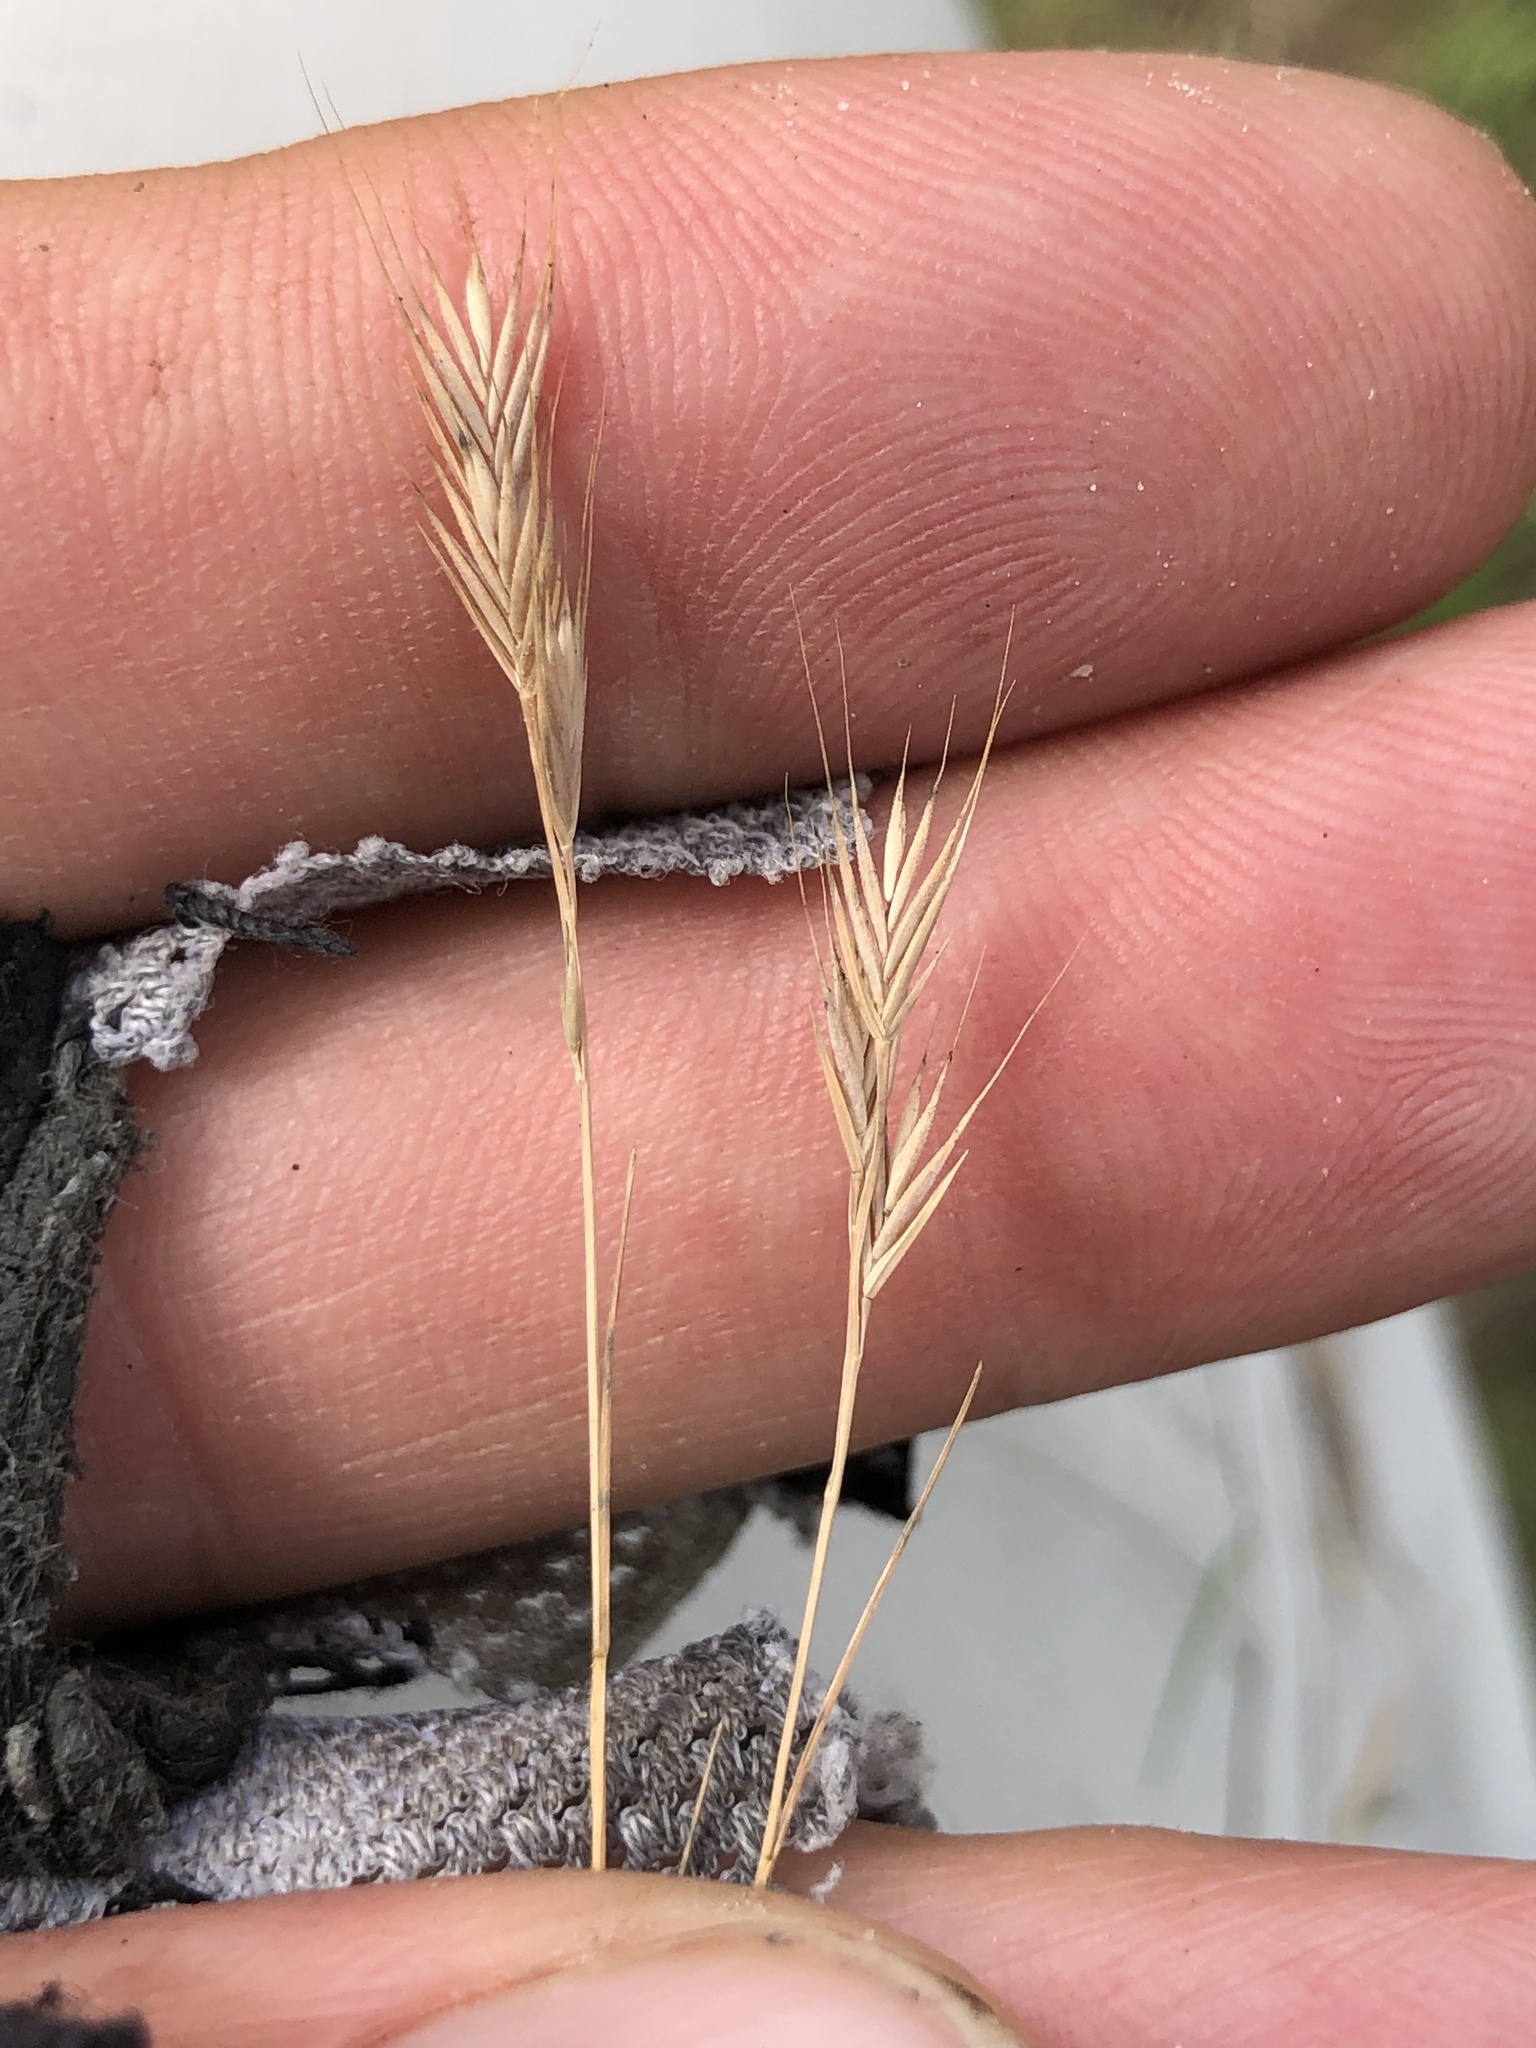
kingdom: Plantae
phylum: Tracheophyta
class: Liliopsida
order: Poales
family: Poaceae
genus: Festuca
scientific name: Festuca octoflora
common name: Sixweeks grass
